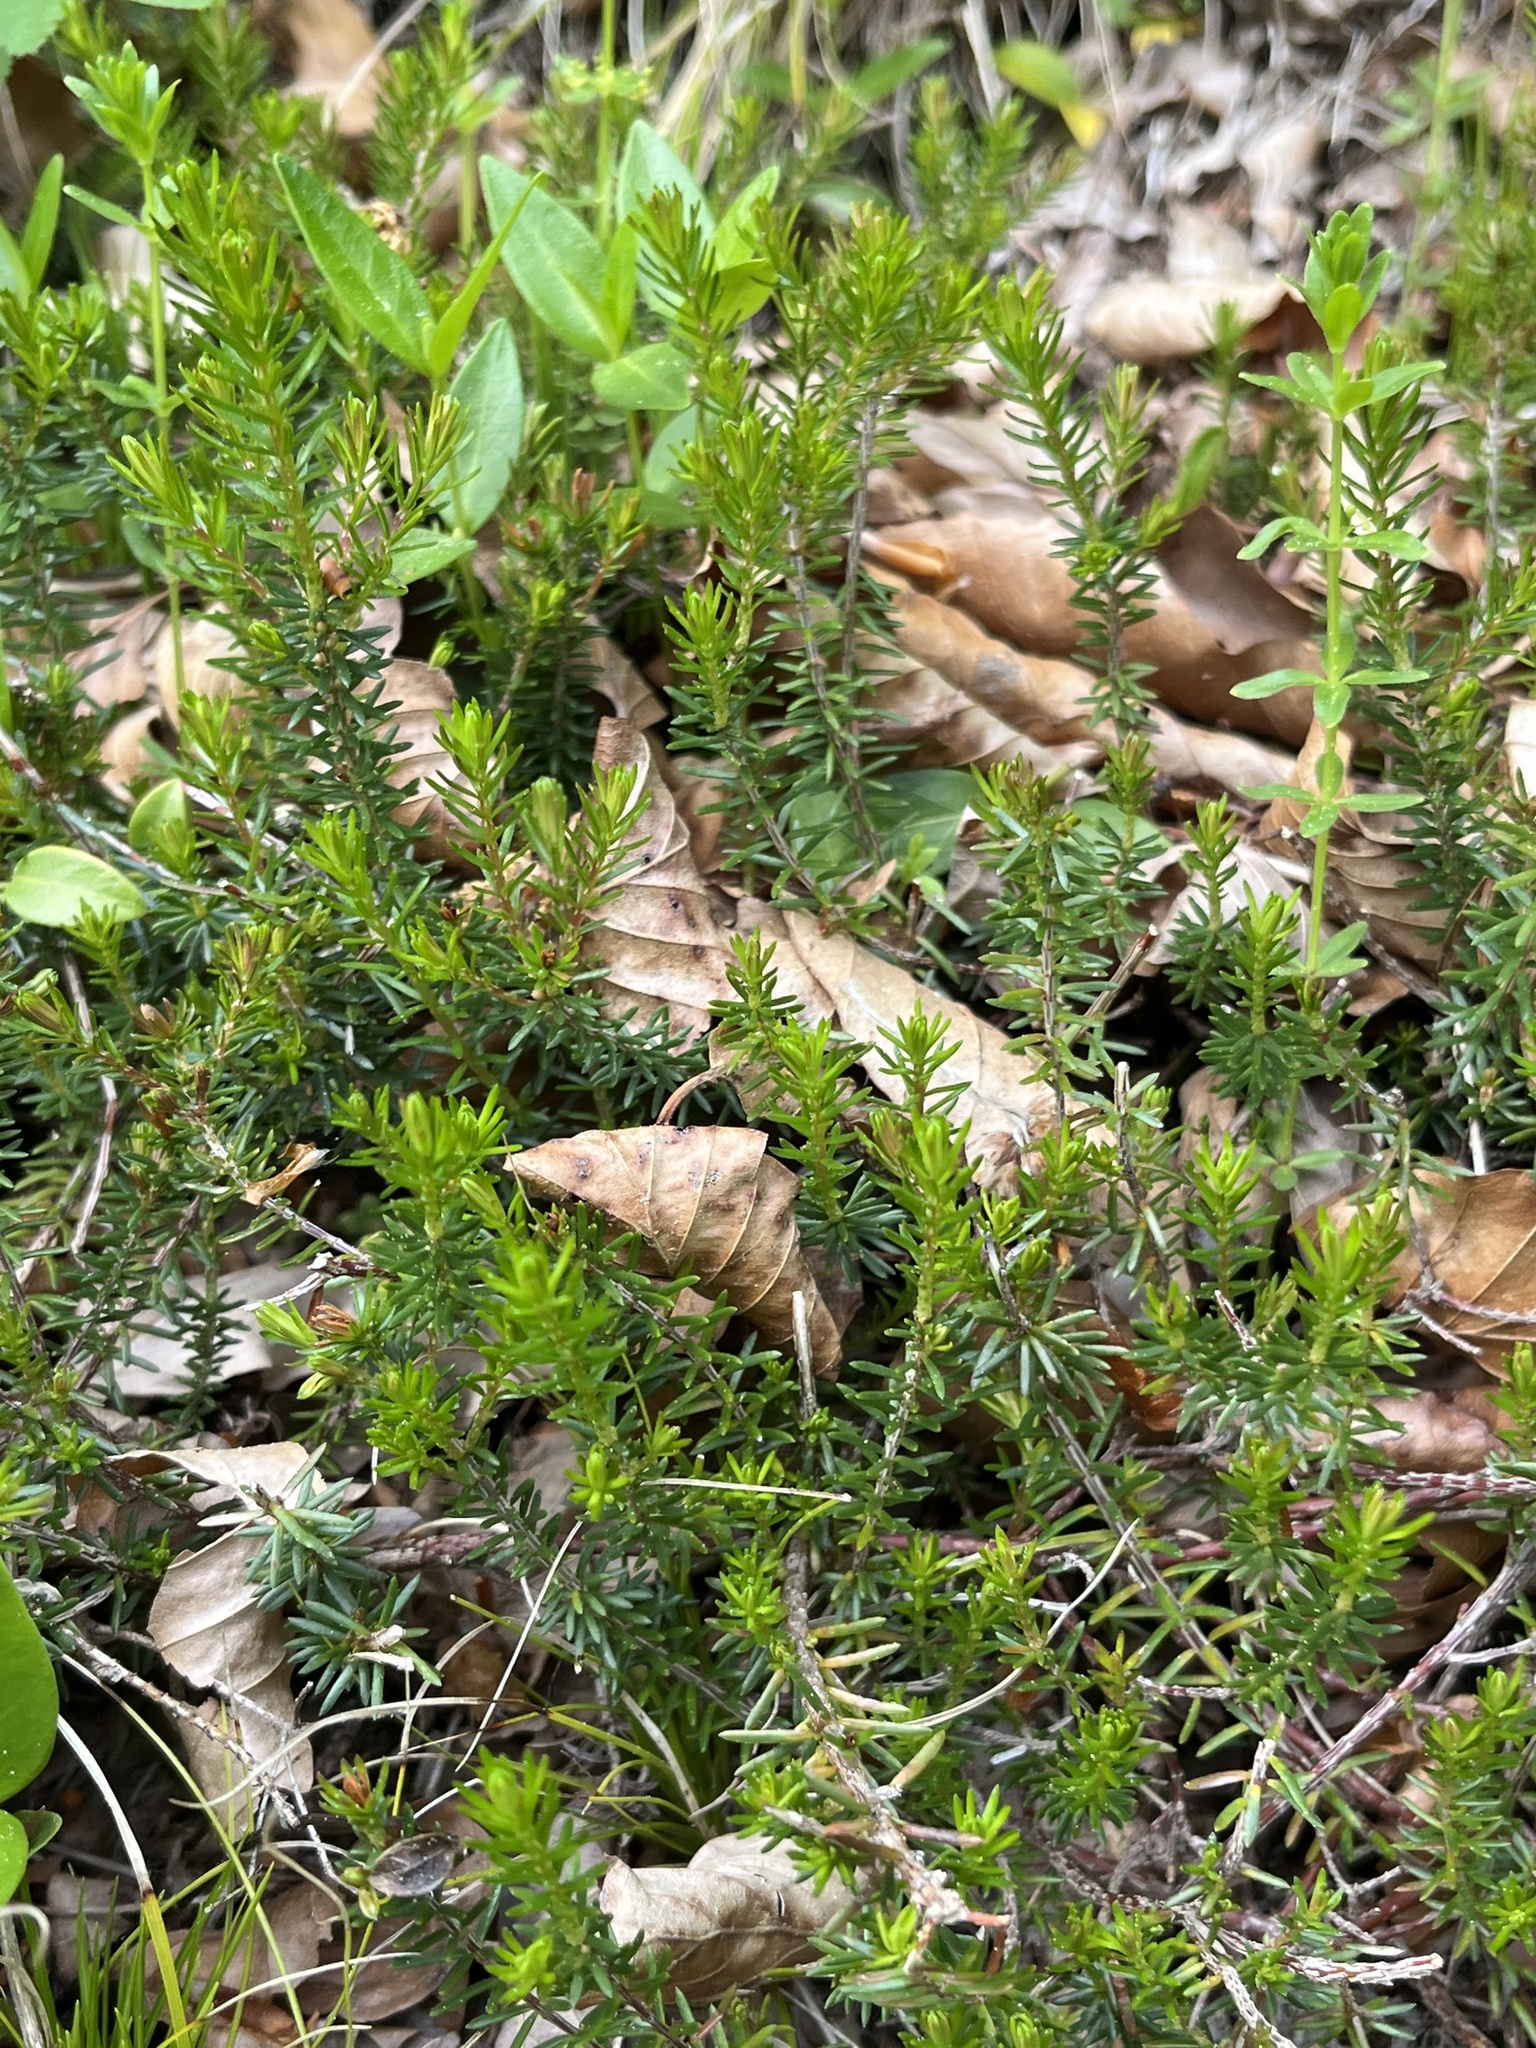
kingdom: Plantae
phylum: Tracheophyta
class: Magnoliopsida
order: Ericales
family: Ericaceae
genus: Erica
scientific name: Erica carnea
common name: Winter heath
